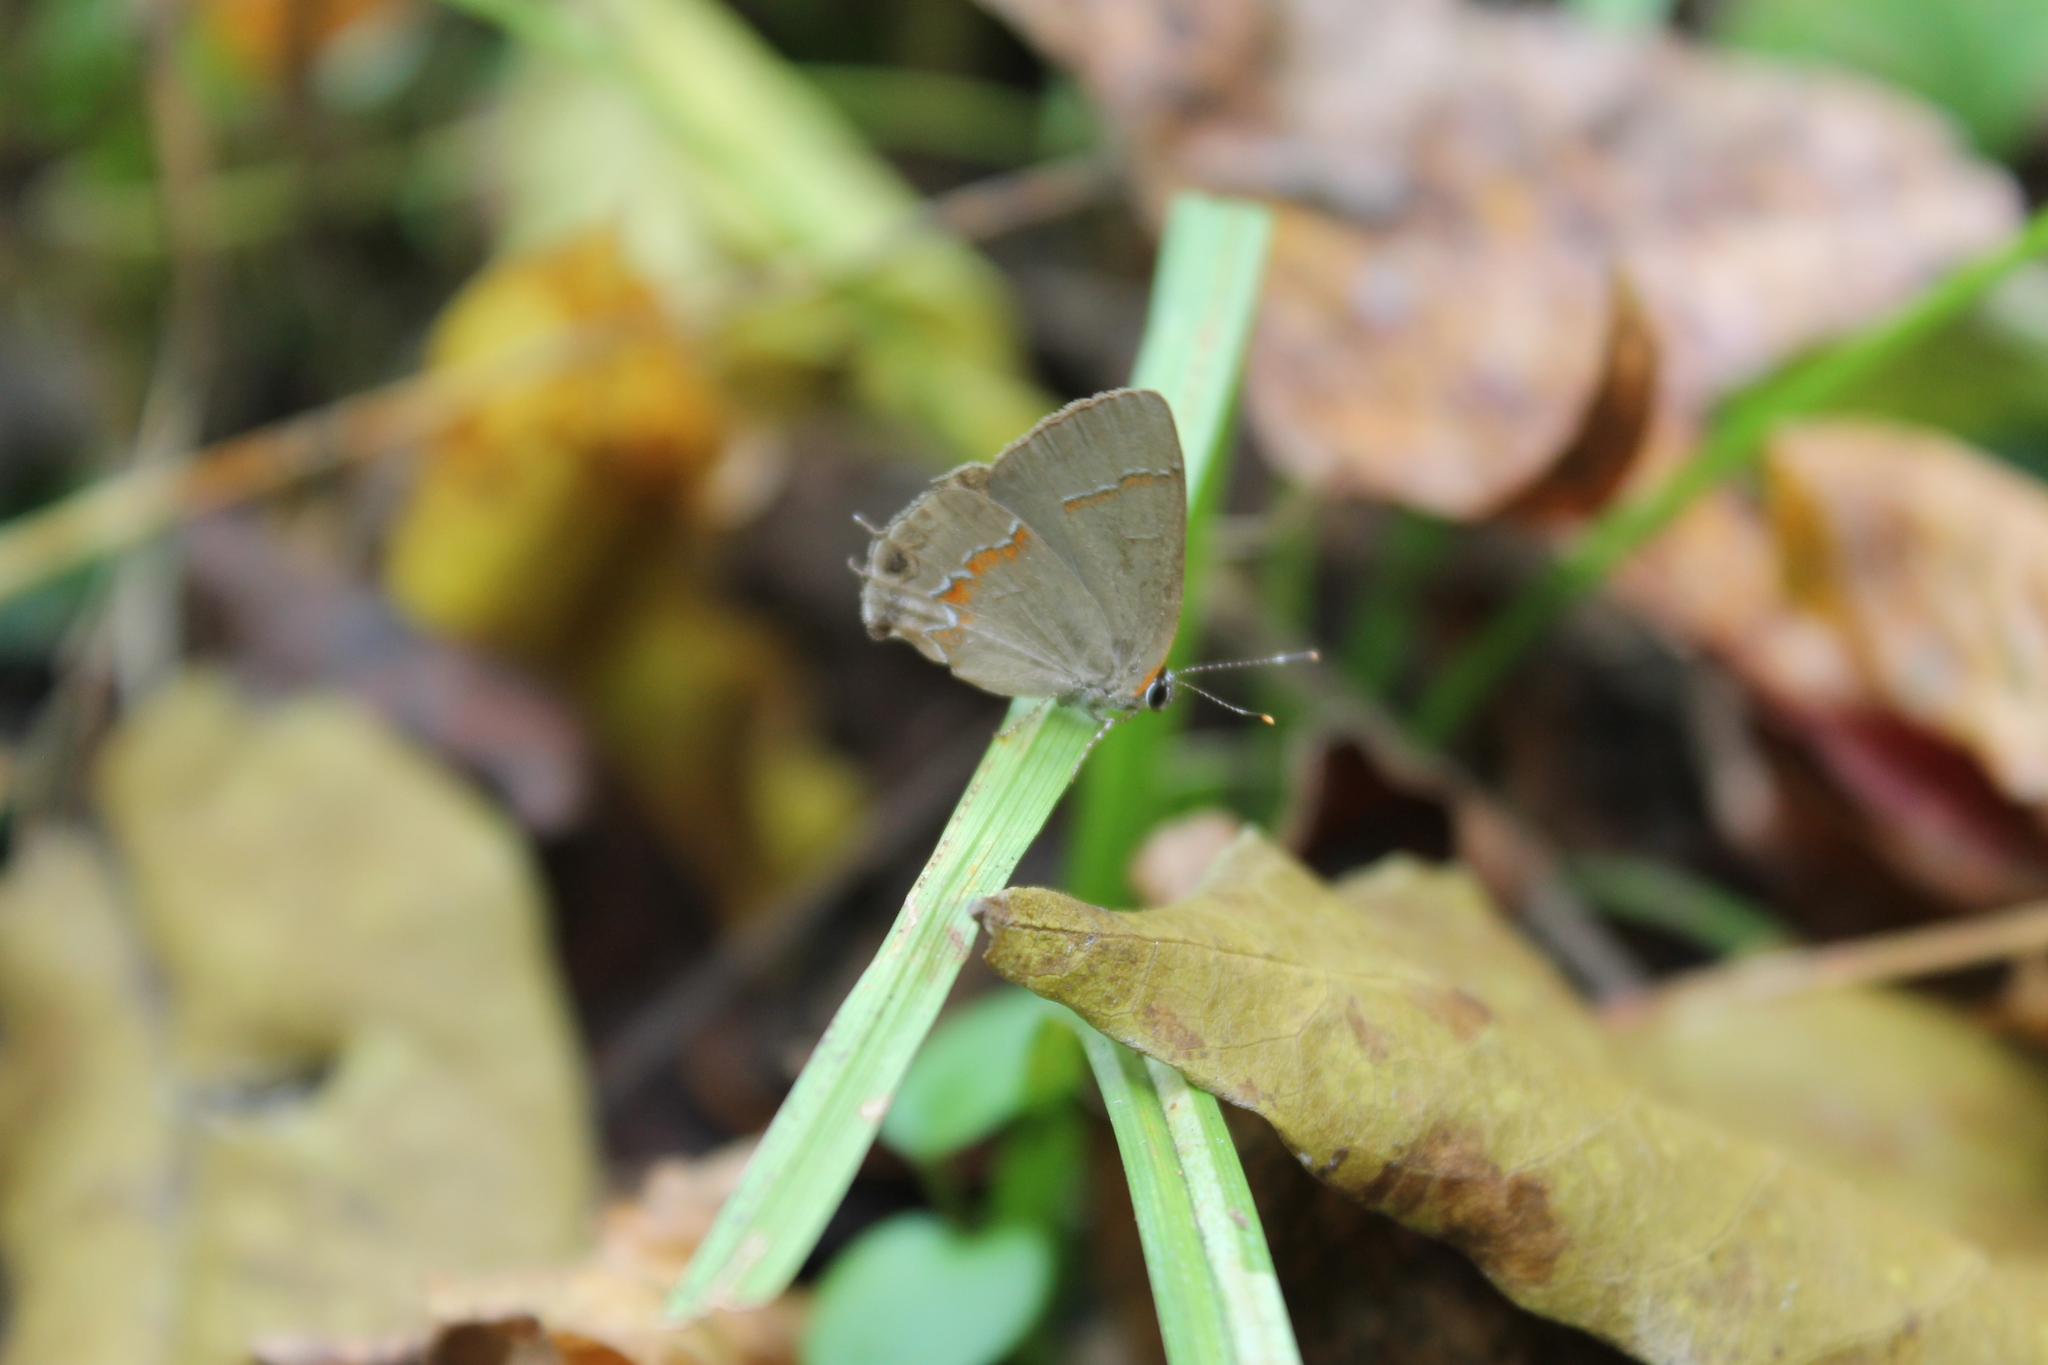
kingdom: Animalia
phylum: Arthropoda
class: Insecta
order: Lepidoptera
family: Lycaenidae
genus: Calycopis
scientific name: Calycopis cecrops
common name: Red-banded hairstreak
